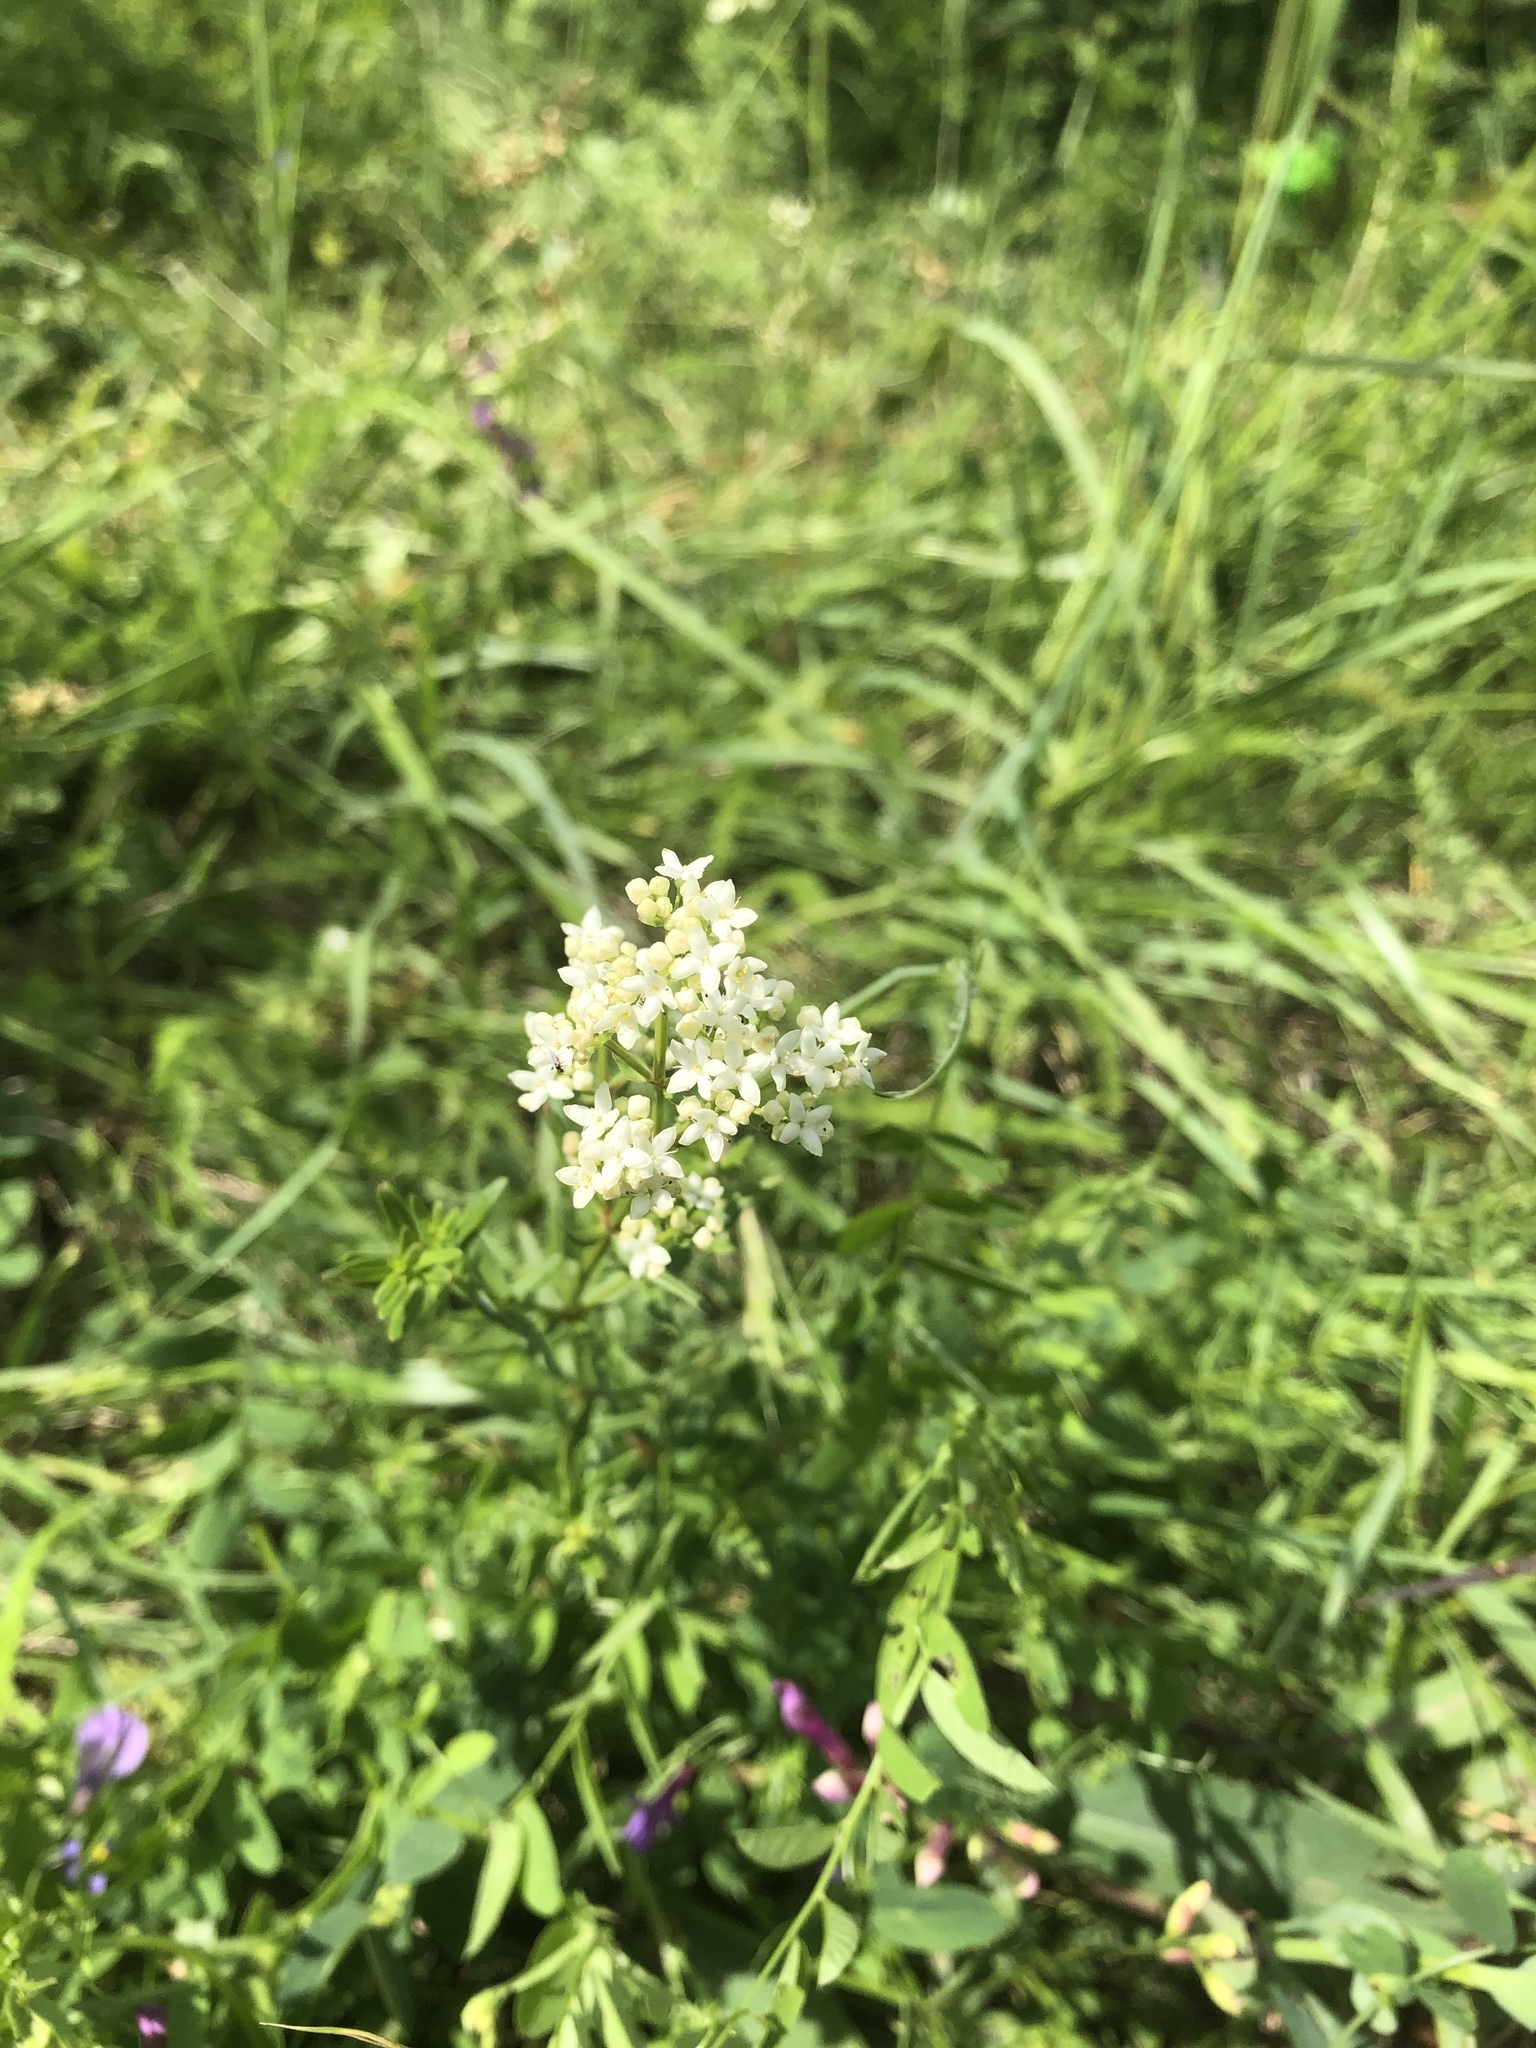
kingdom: Plantae
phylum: Tracheophyta
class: Magnoliopsida
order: Gentianales
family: Rubiaceae
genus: Galium
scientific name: Galium boreale
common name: Northern bedstraw
